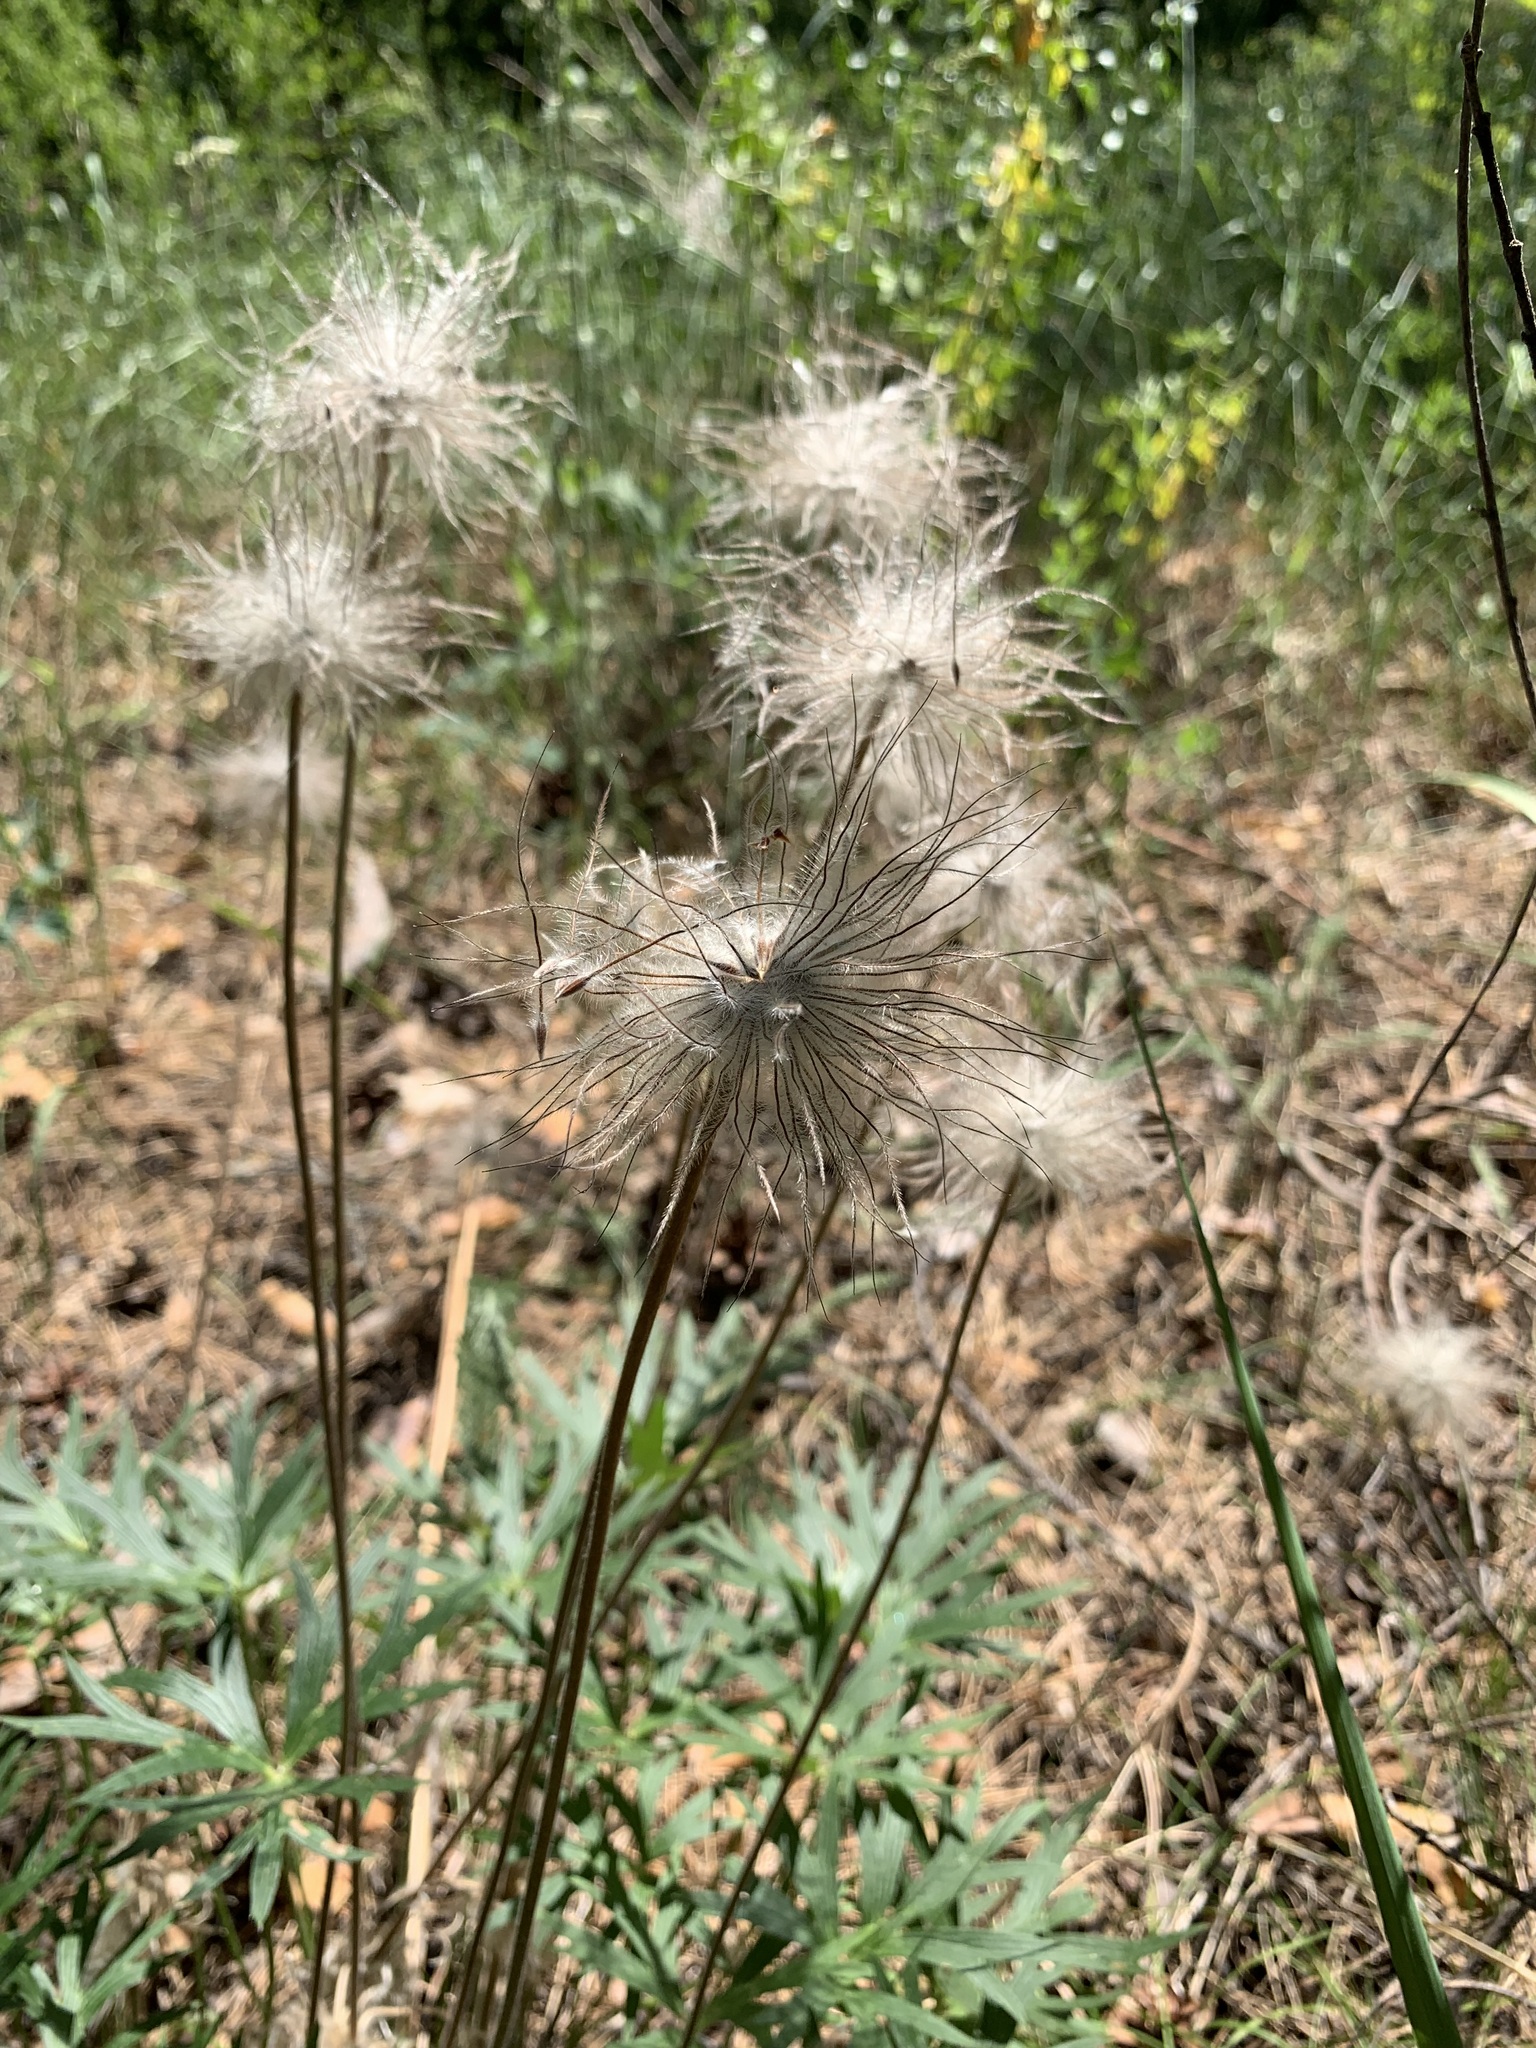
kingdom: Plantae
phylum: Tracheophyta
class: Magnoliopsida
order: Ranunculales
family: Ranunculaceae
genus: Pulsatilla
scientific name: Pulsatilla patens
